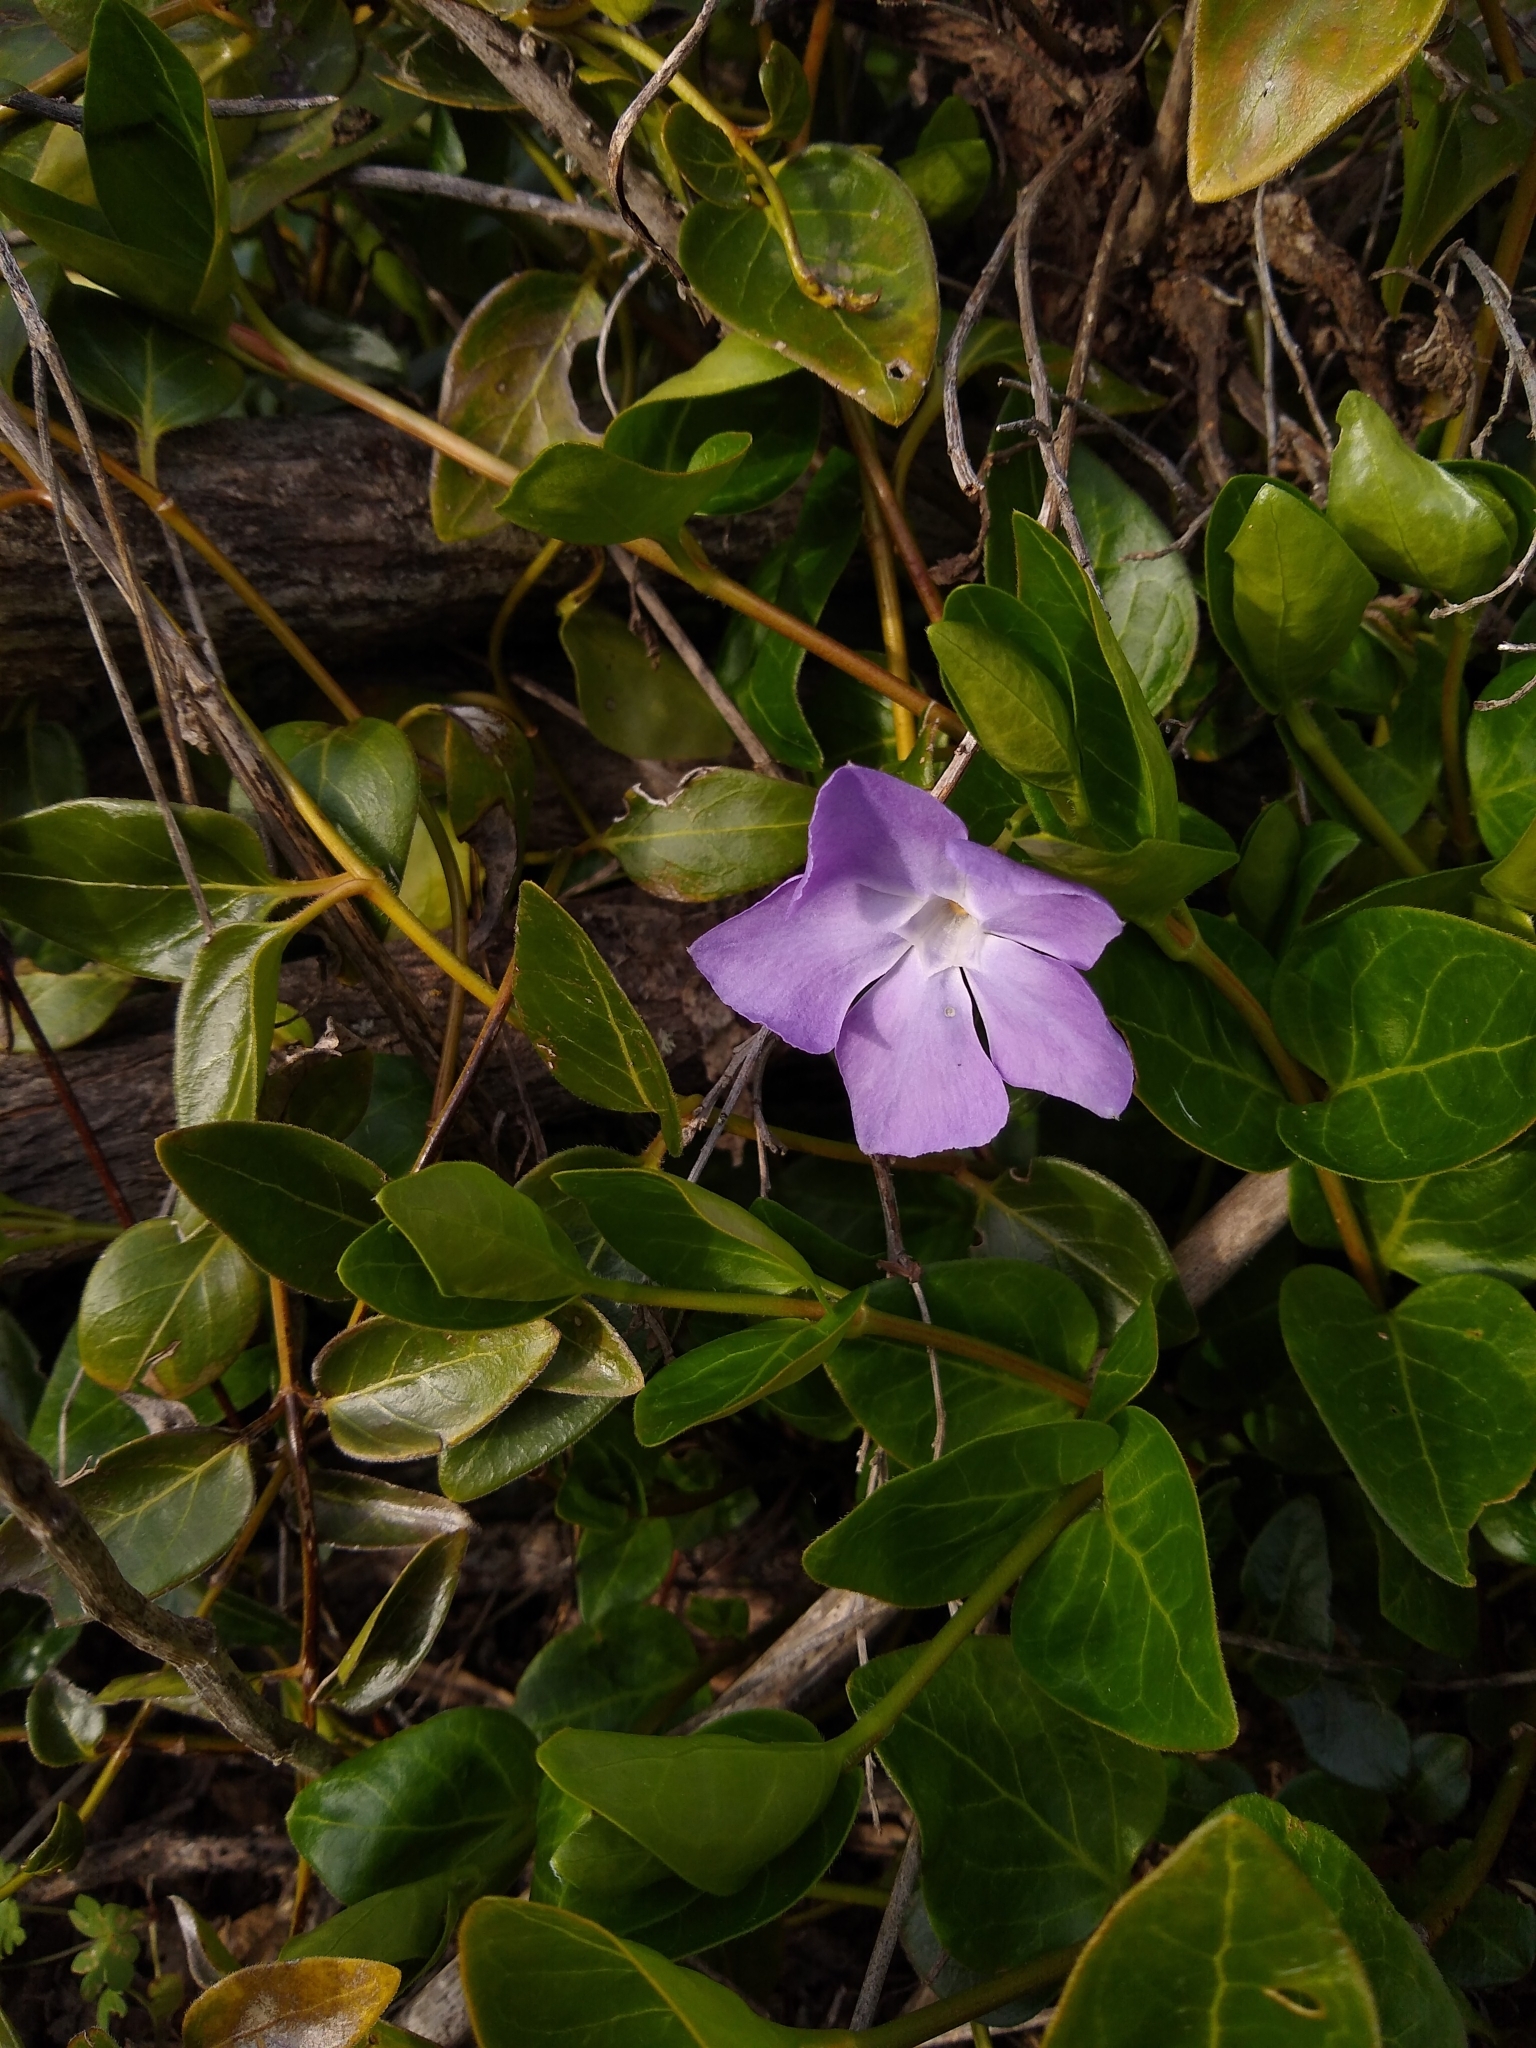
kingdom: Plantae
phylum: Tracheophyta
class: Magnoliopsida
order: Gentianales
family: Apocynaceae
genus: Vinca
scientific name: Vinca major
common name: Greater periwinkle
